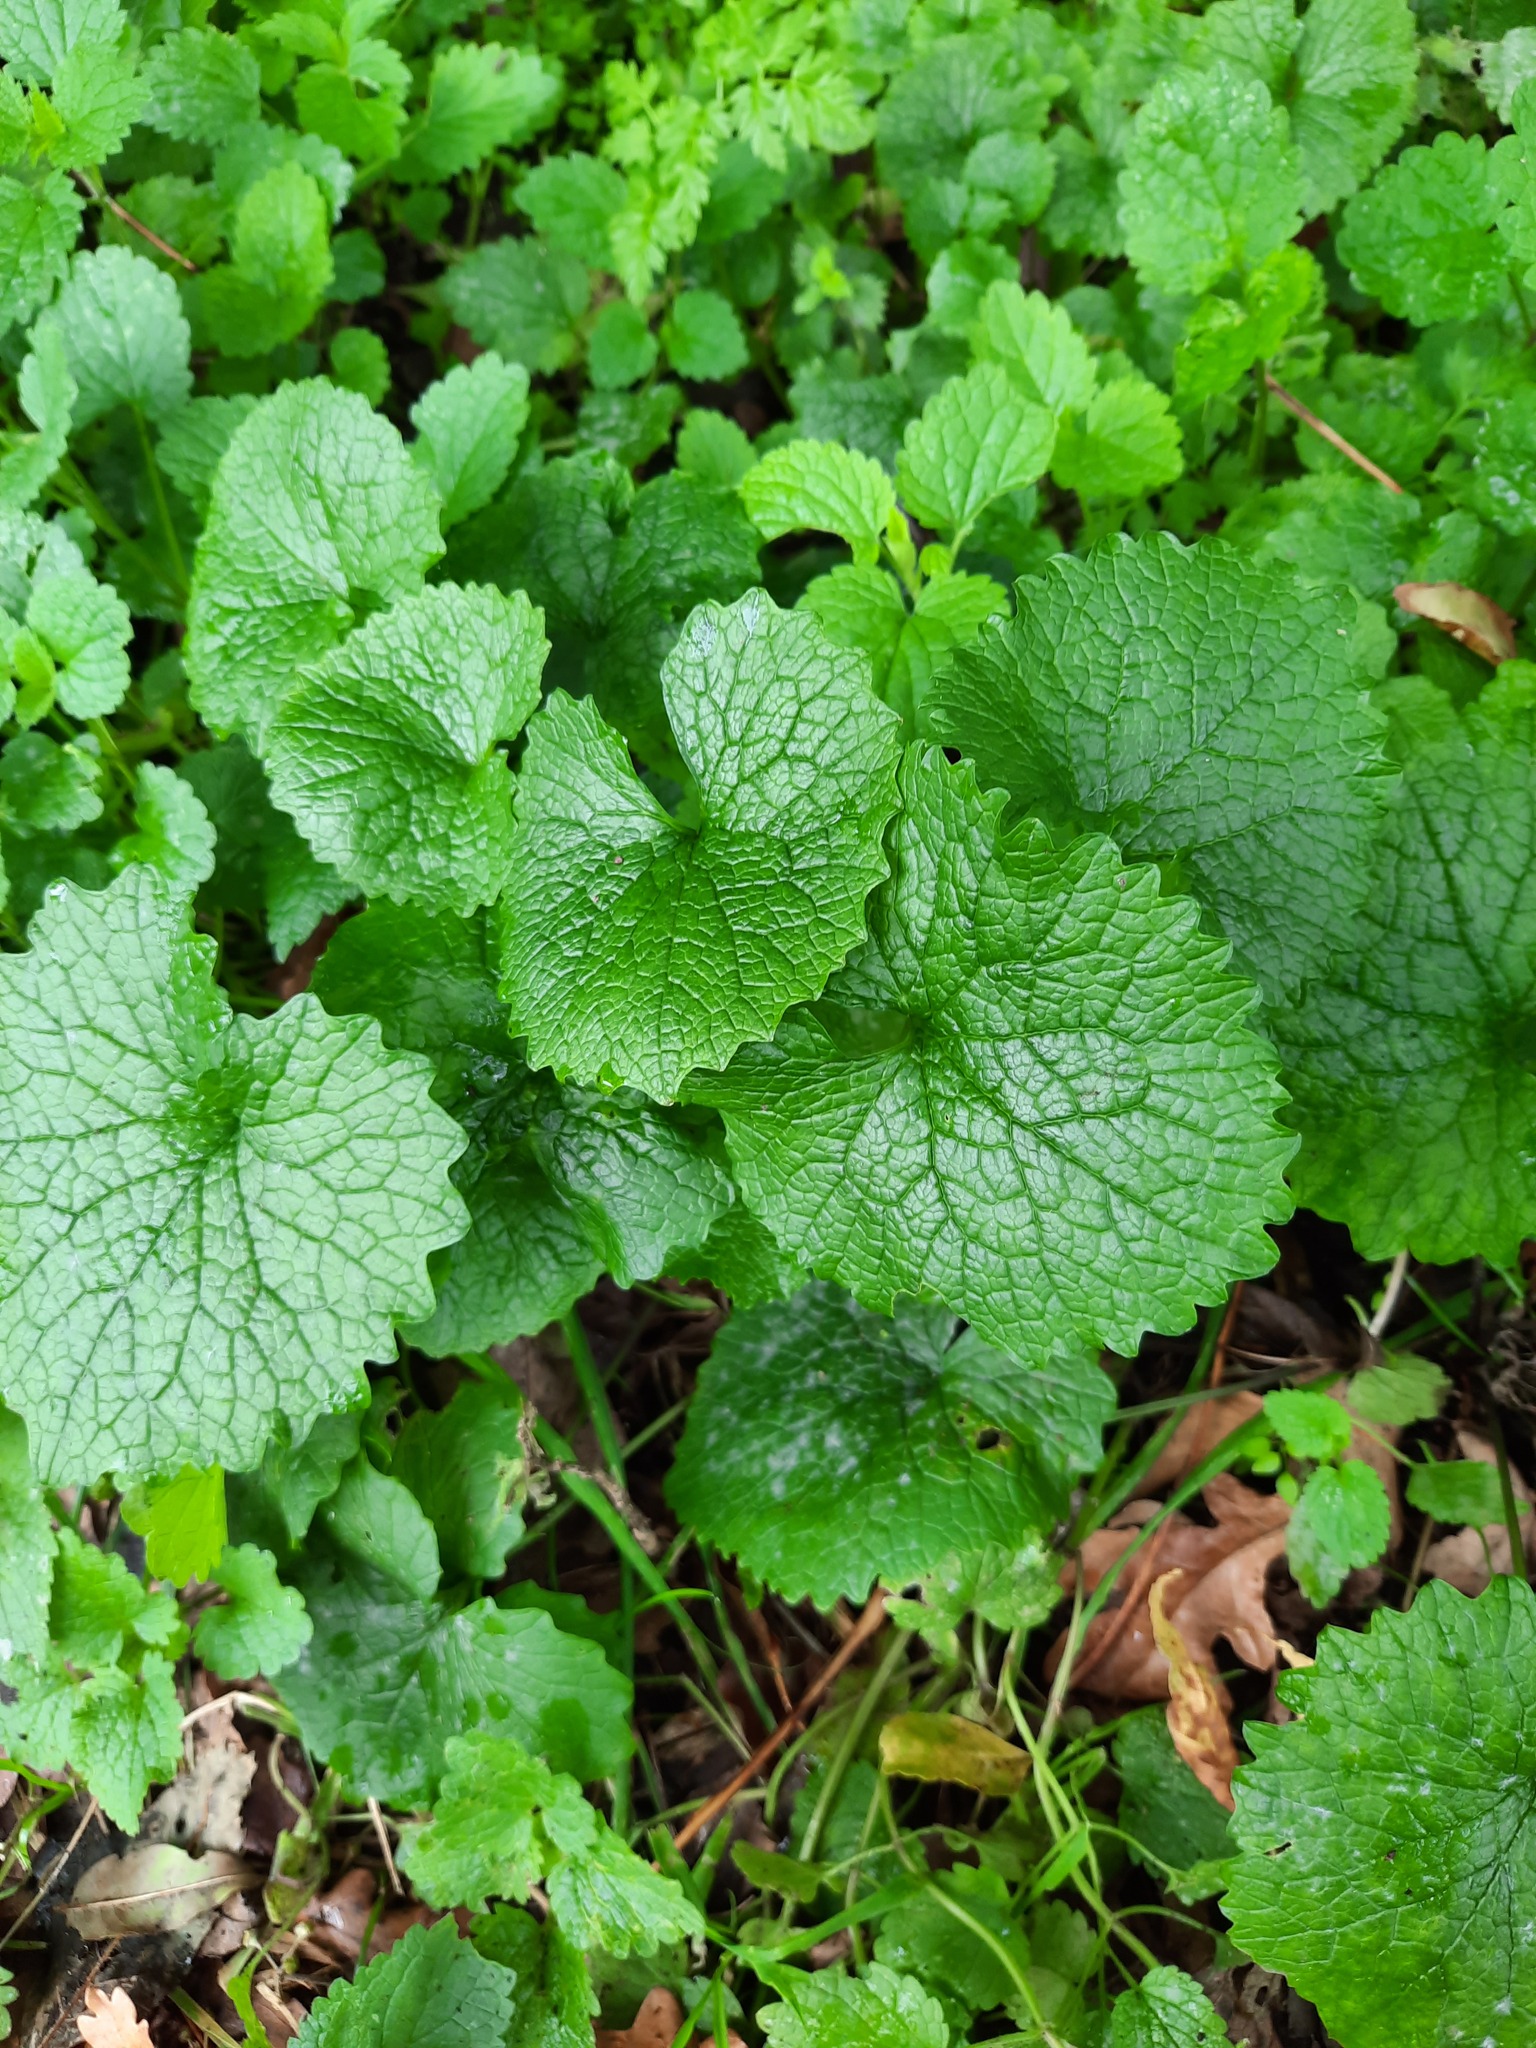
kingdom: Plantae
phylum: Tracheophyta
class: Magnoliopsida
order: Brassicales
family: Brassicaceae
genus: Alliaria
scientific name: Alliaria petiolata
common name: Garlic mustard
